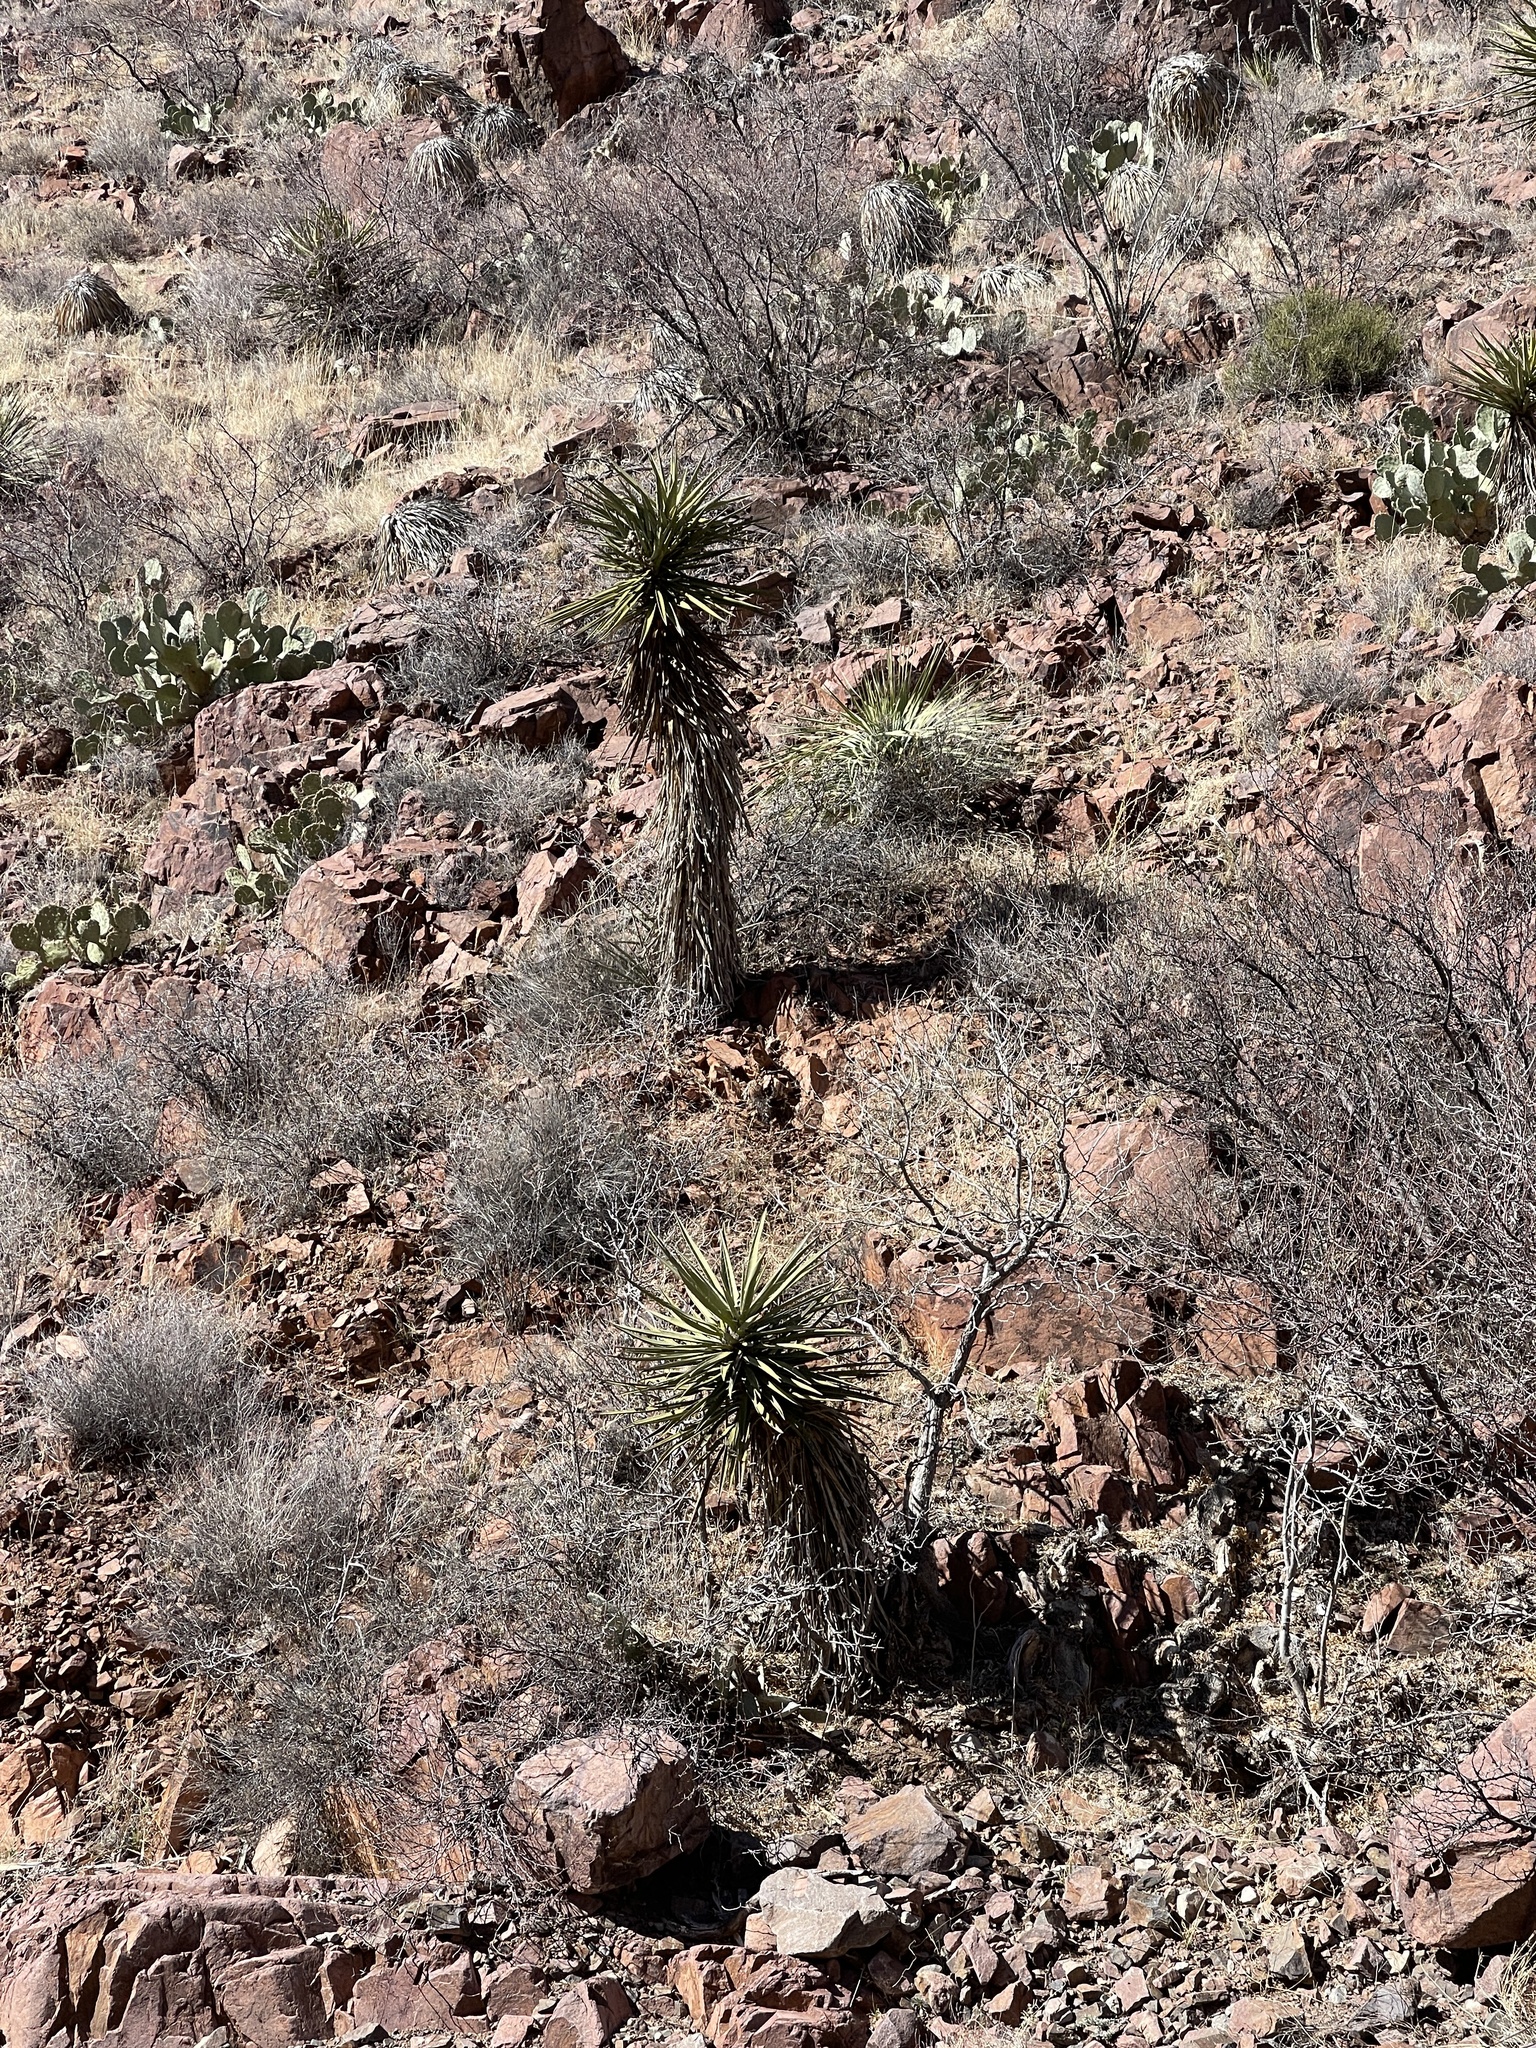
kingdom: Plantae
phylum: Tracheophyta
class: Liliopsida
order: Asparagales
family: Asparagaceae
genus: Yucca
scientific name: Yucca treculiana
